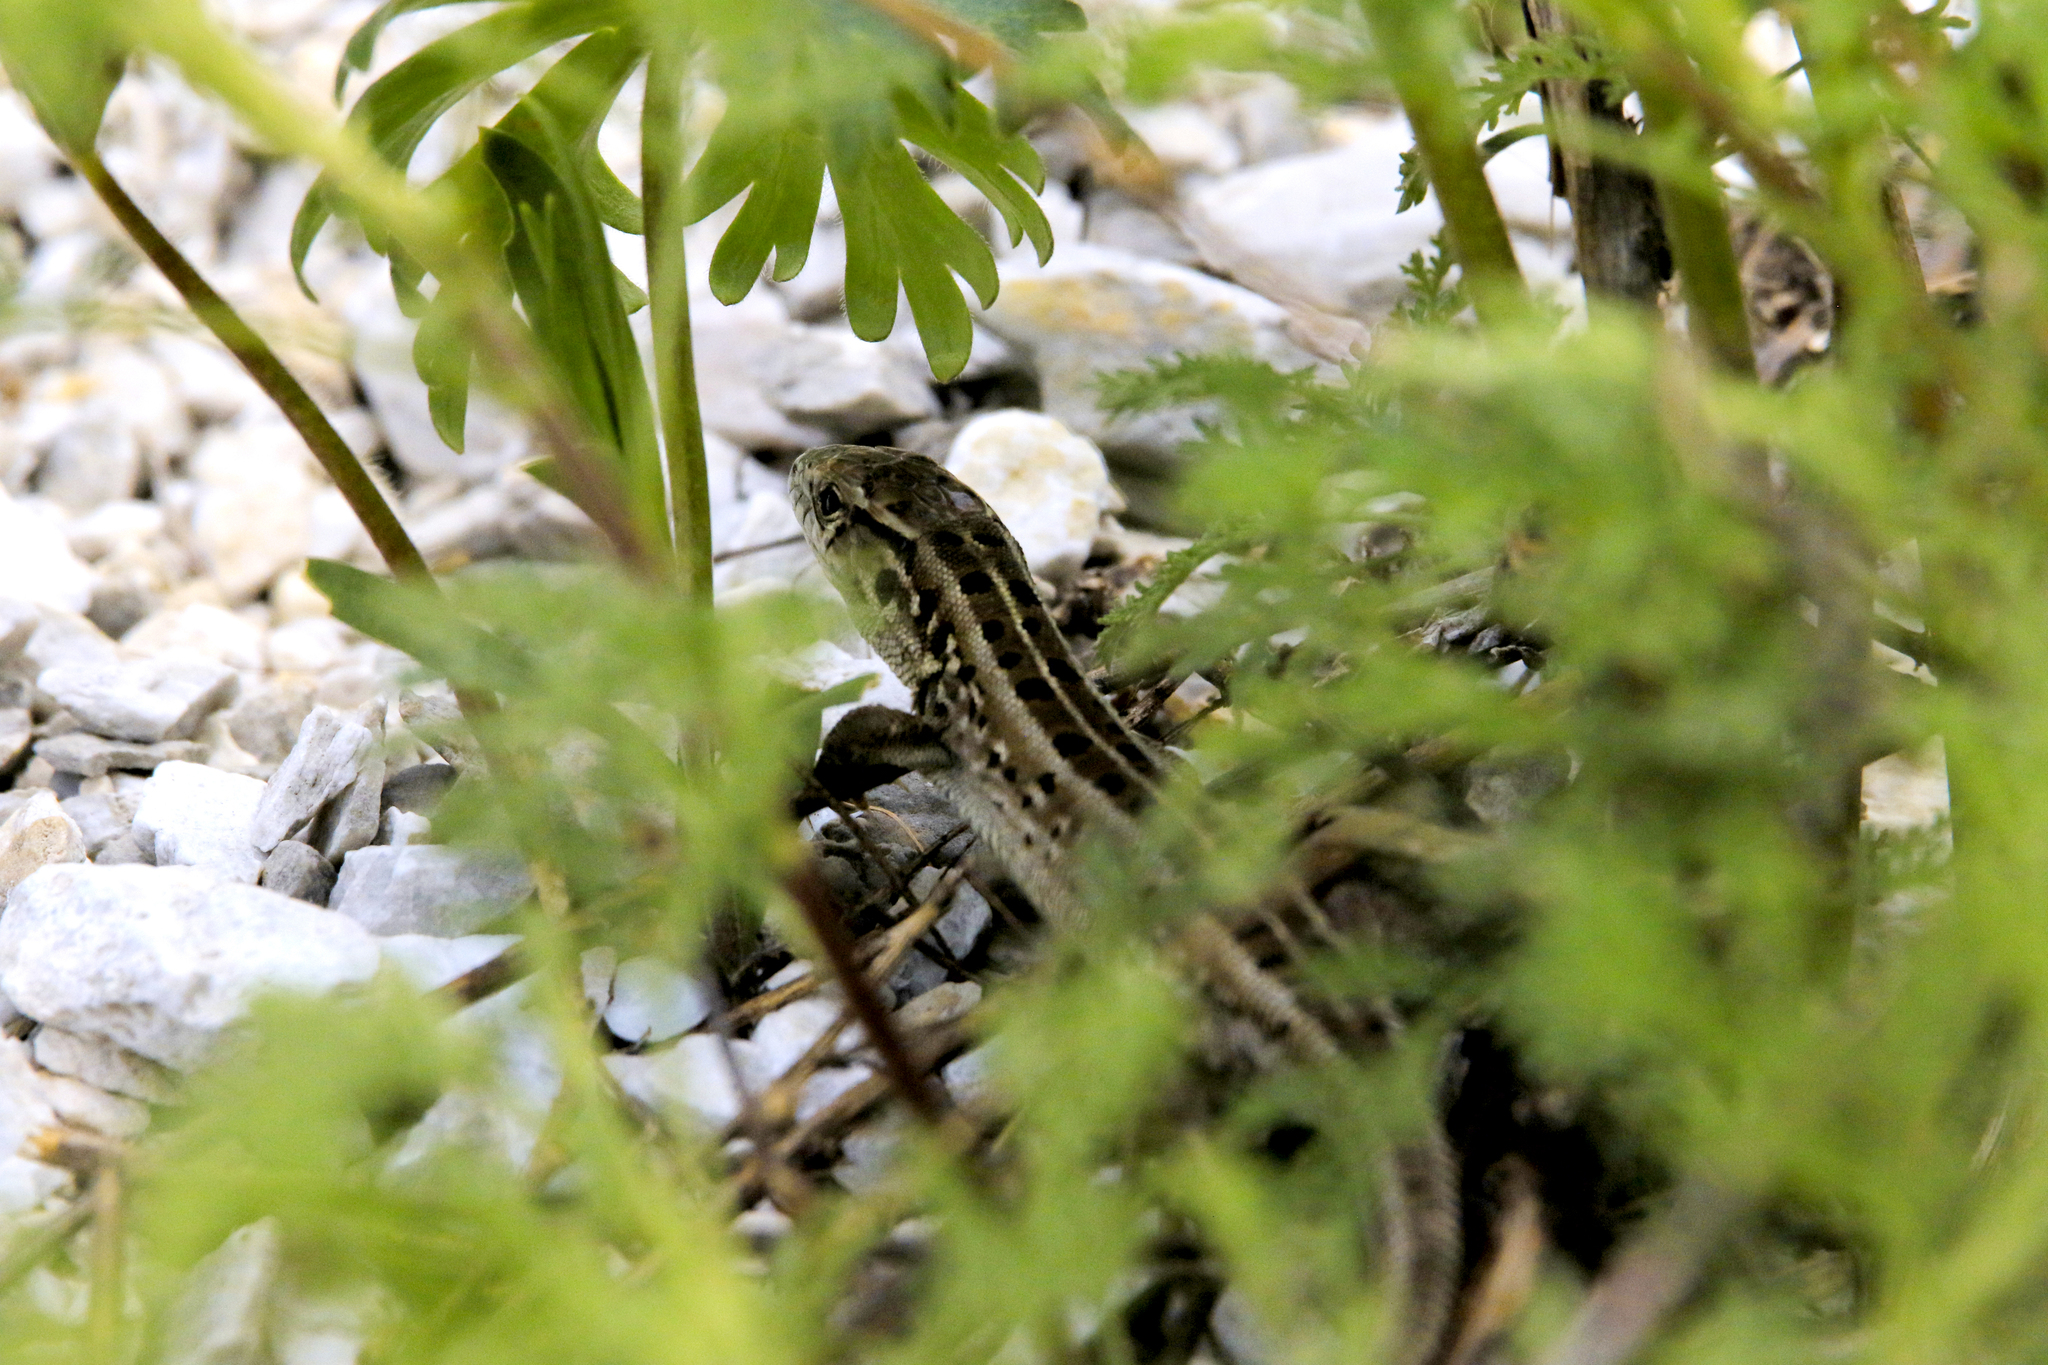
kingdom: Animalia
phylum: Chordata
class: Squamata
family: Lacertidae
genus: Lacerta
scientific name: Lacerta agilis
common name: Sand lizard
